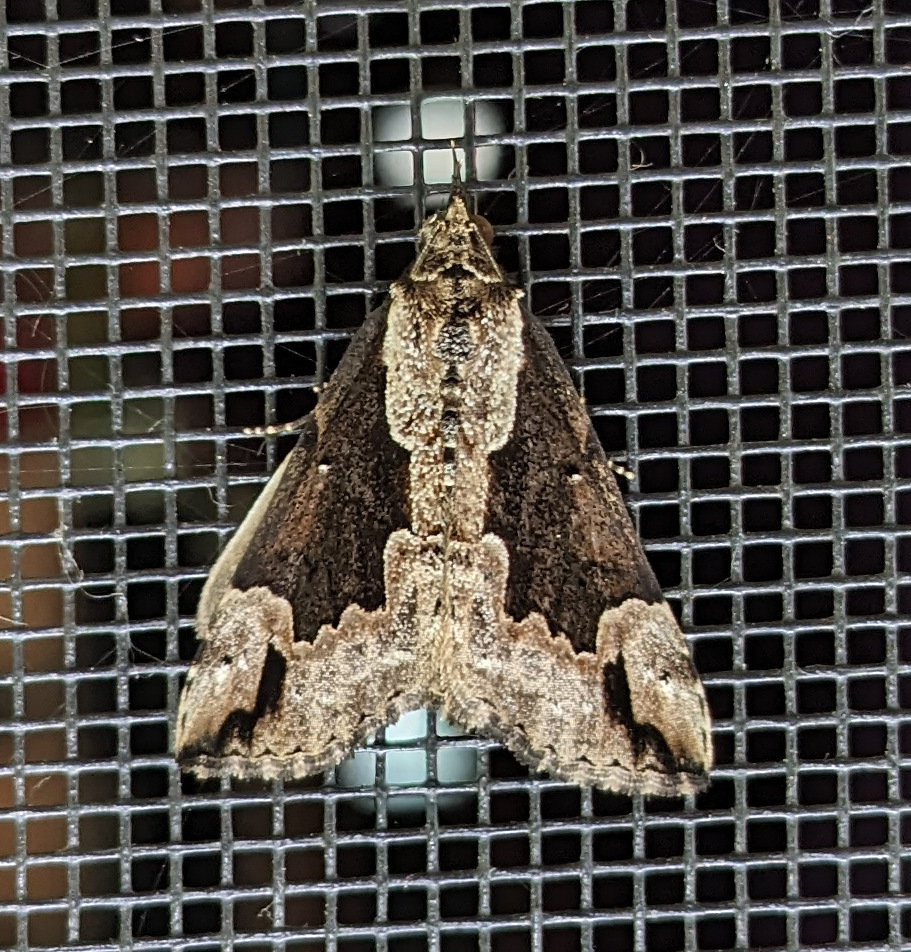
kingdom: Animalia
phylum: Arthropoda
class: Insecta
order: Lepidoptera
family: Erebidae
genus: Hypena
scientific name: Hypena baltimoralis
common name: Baltimore snout
